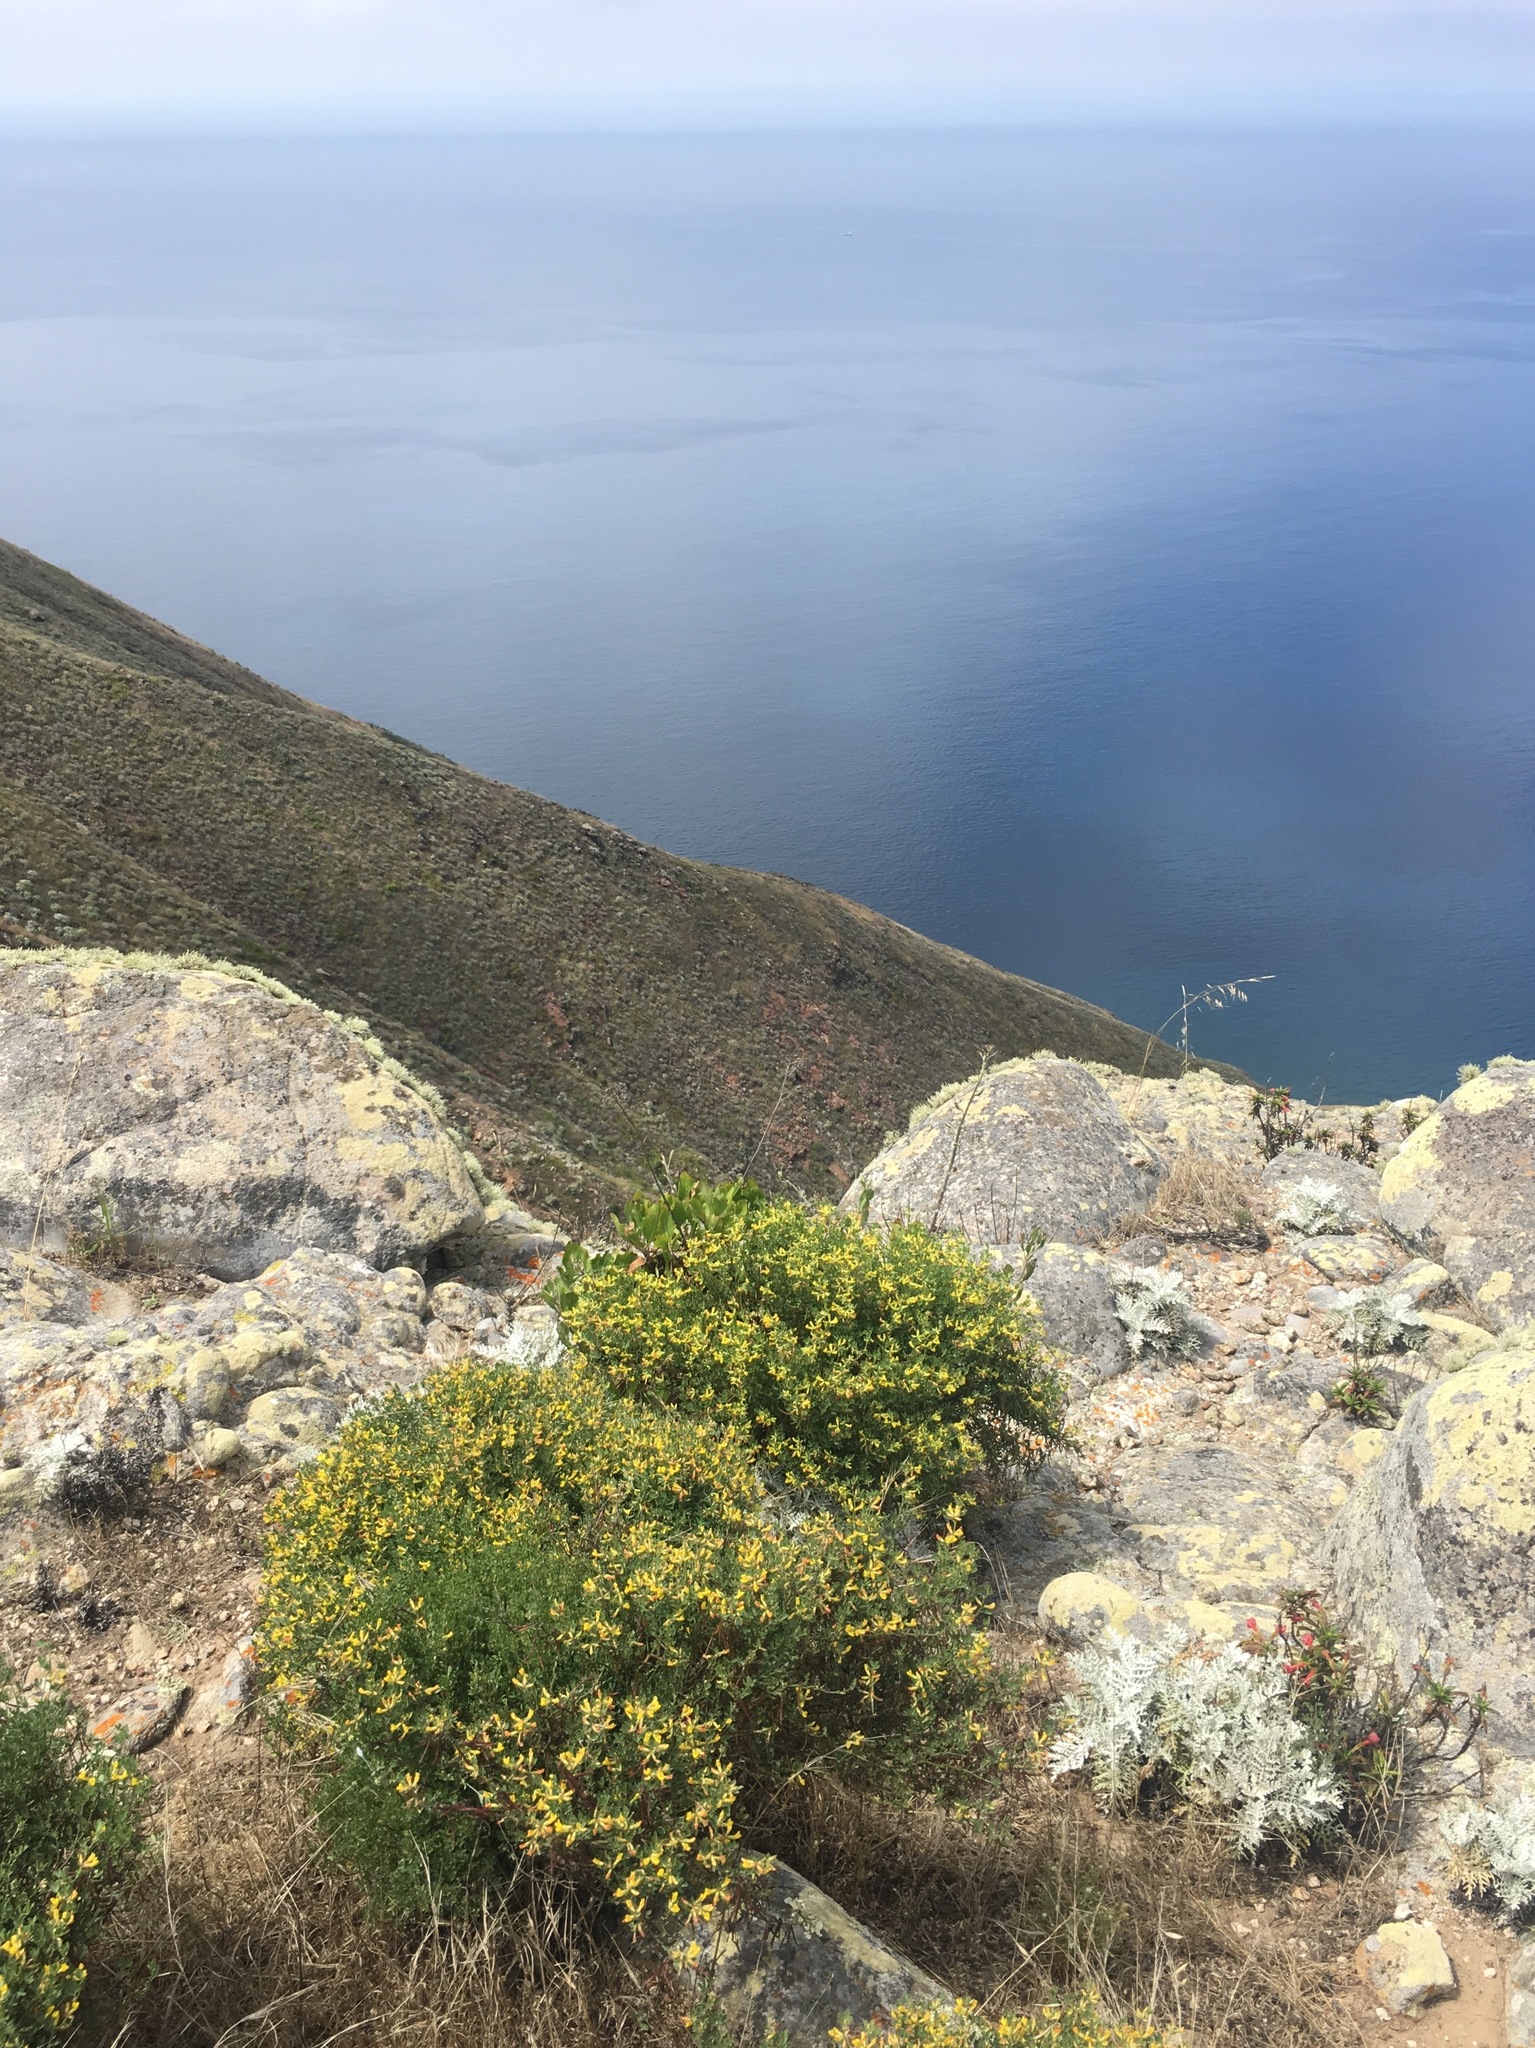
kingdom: Plantae
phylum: Tracheophyta
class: Magnoliopsida
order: Fabales
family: Fabaceae
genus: Acmispon
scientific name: Acmispon dendroideus
